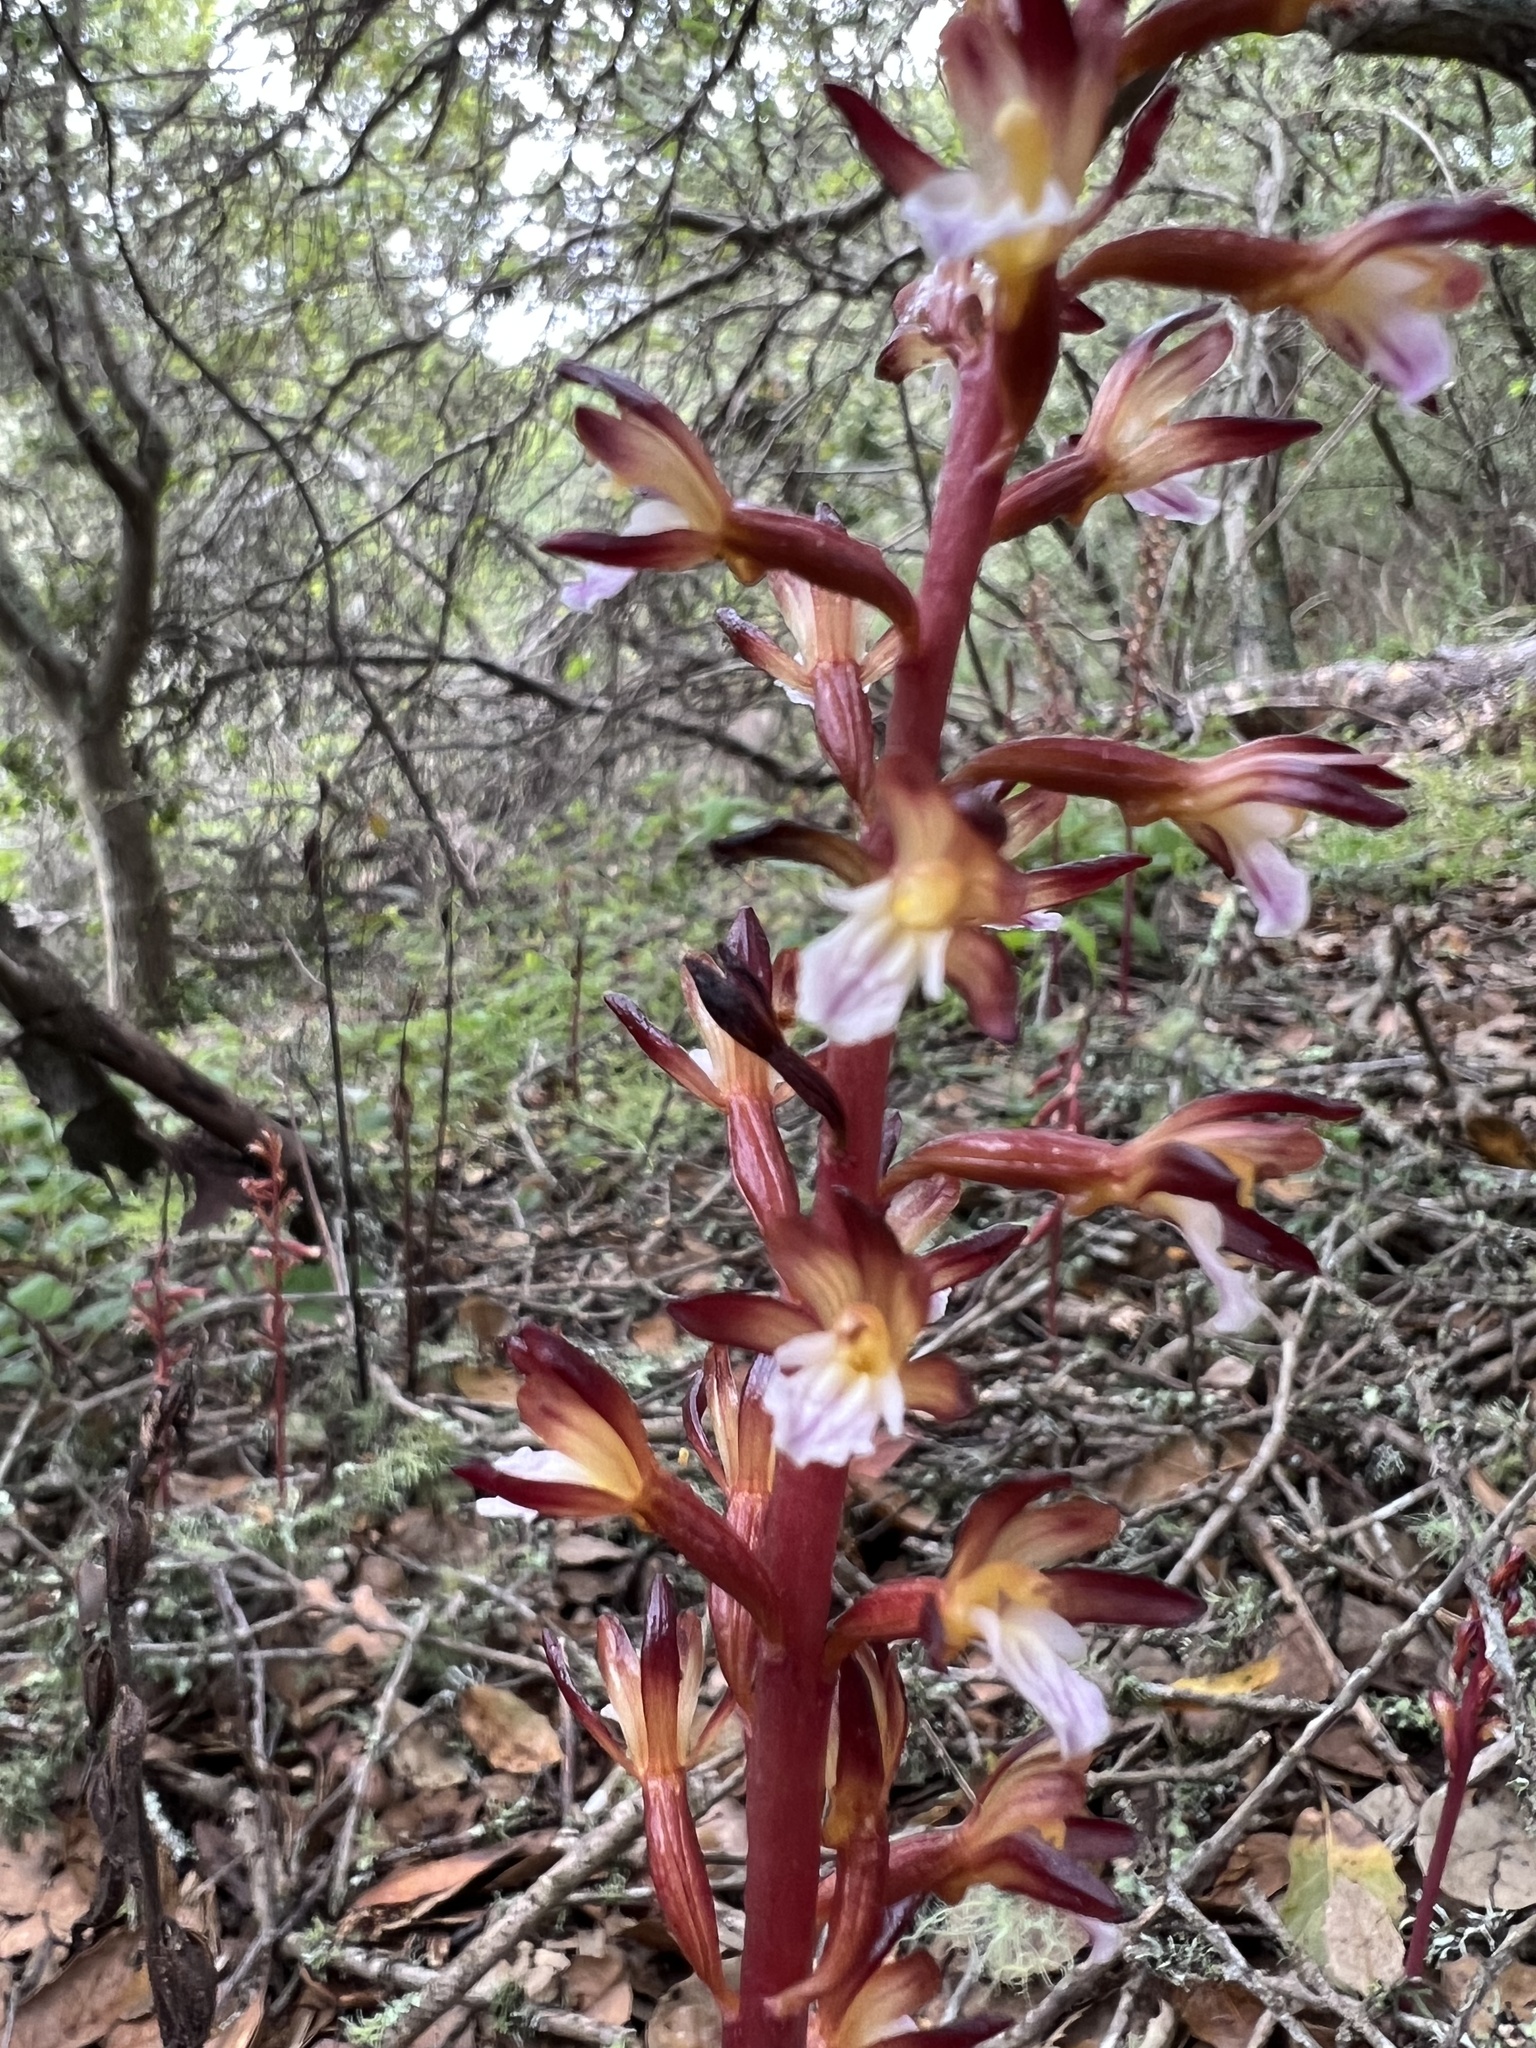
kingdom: Plantae
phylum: Tracheophyta
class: Liliopsida
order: Asparagales
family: Orchidaceae
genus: Corallorhiza
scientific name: Corallorhiza maculata
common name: Spotted coralroot
